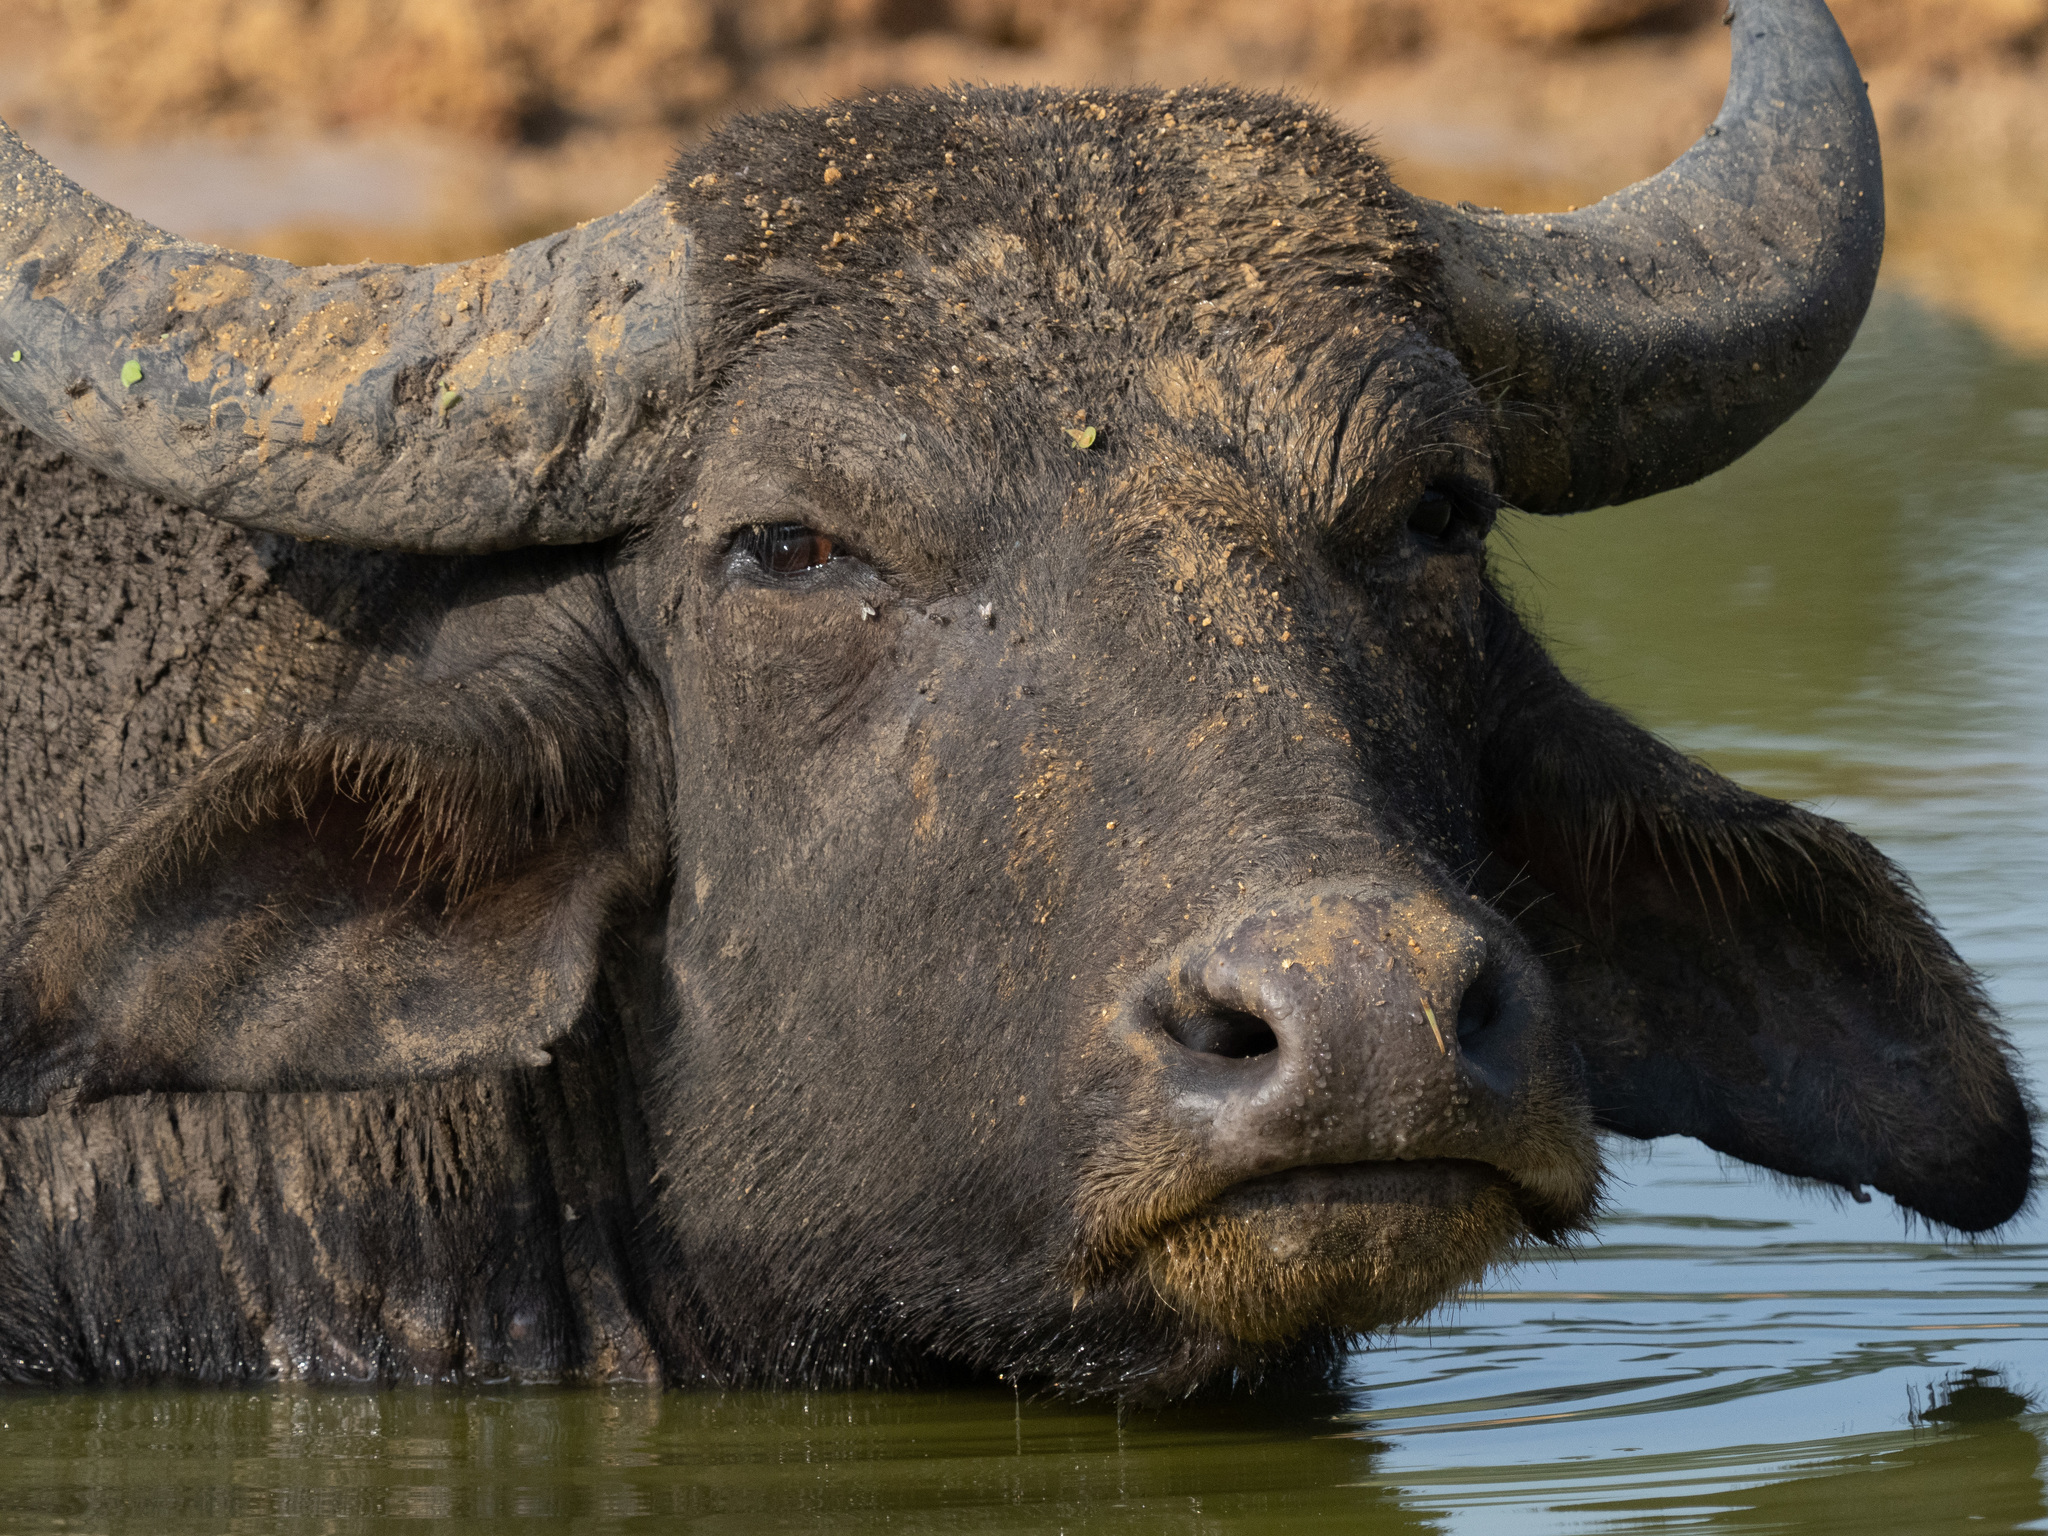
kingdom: Animalia
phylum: Chordata
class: Mammalia
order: Artiodactyla
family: Bovidae
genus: Bubalus
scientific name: Bubalus bubalis
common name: Water buffalo
